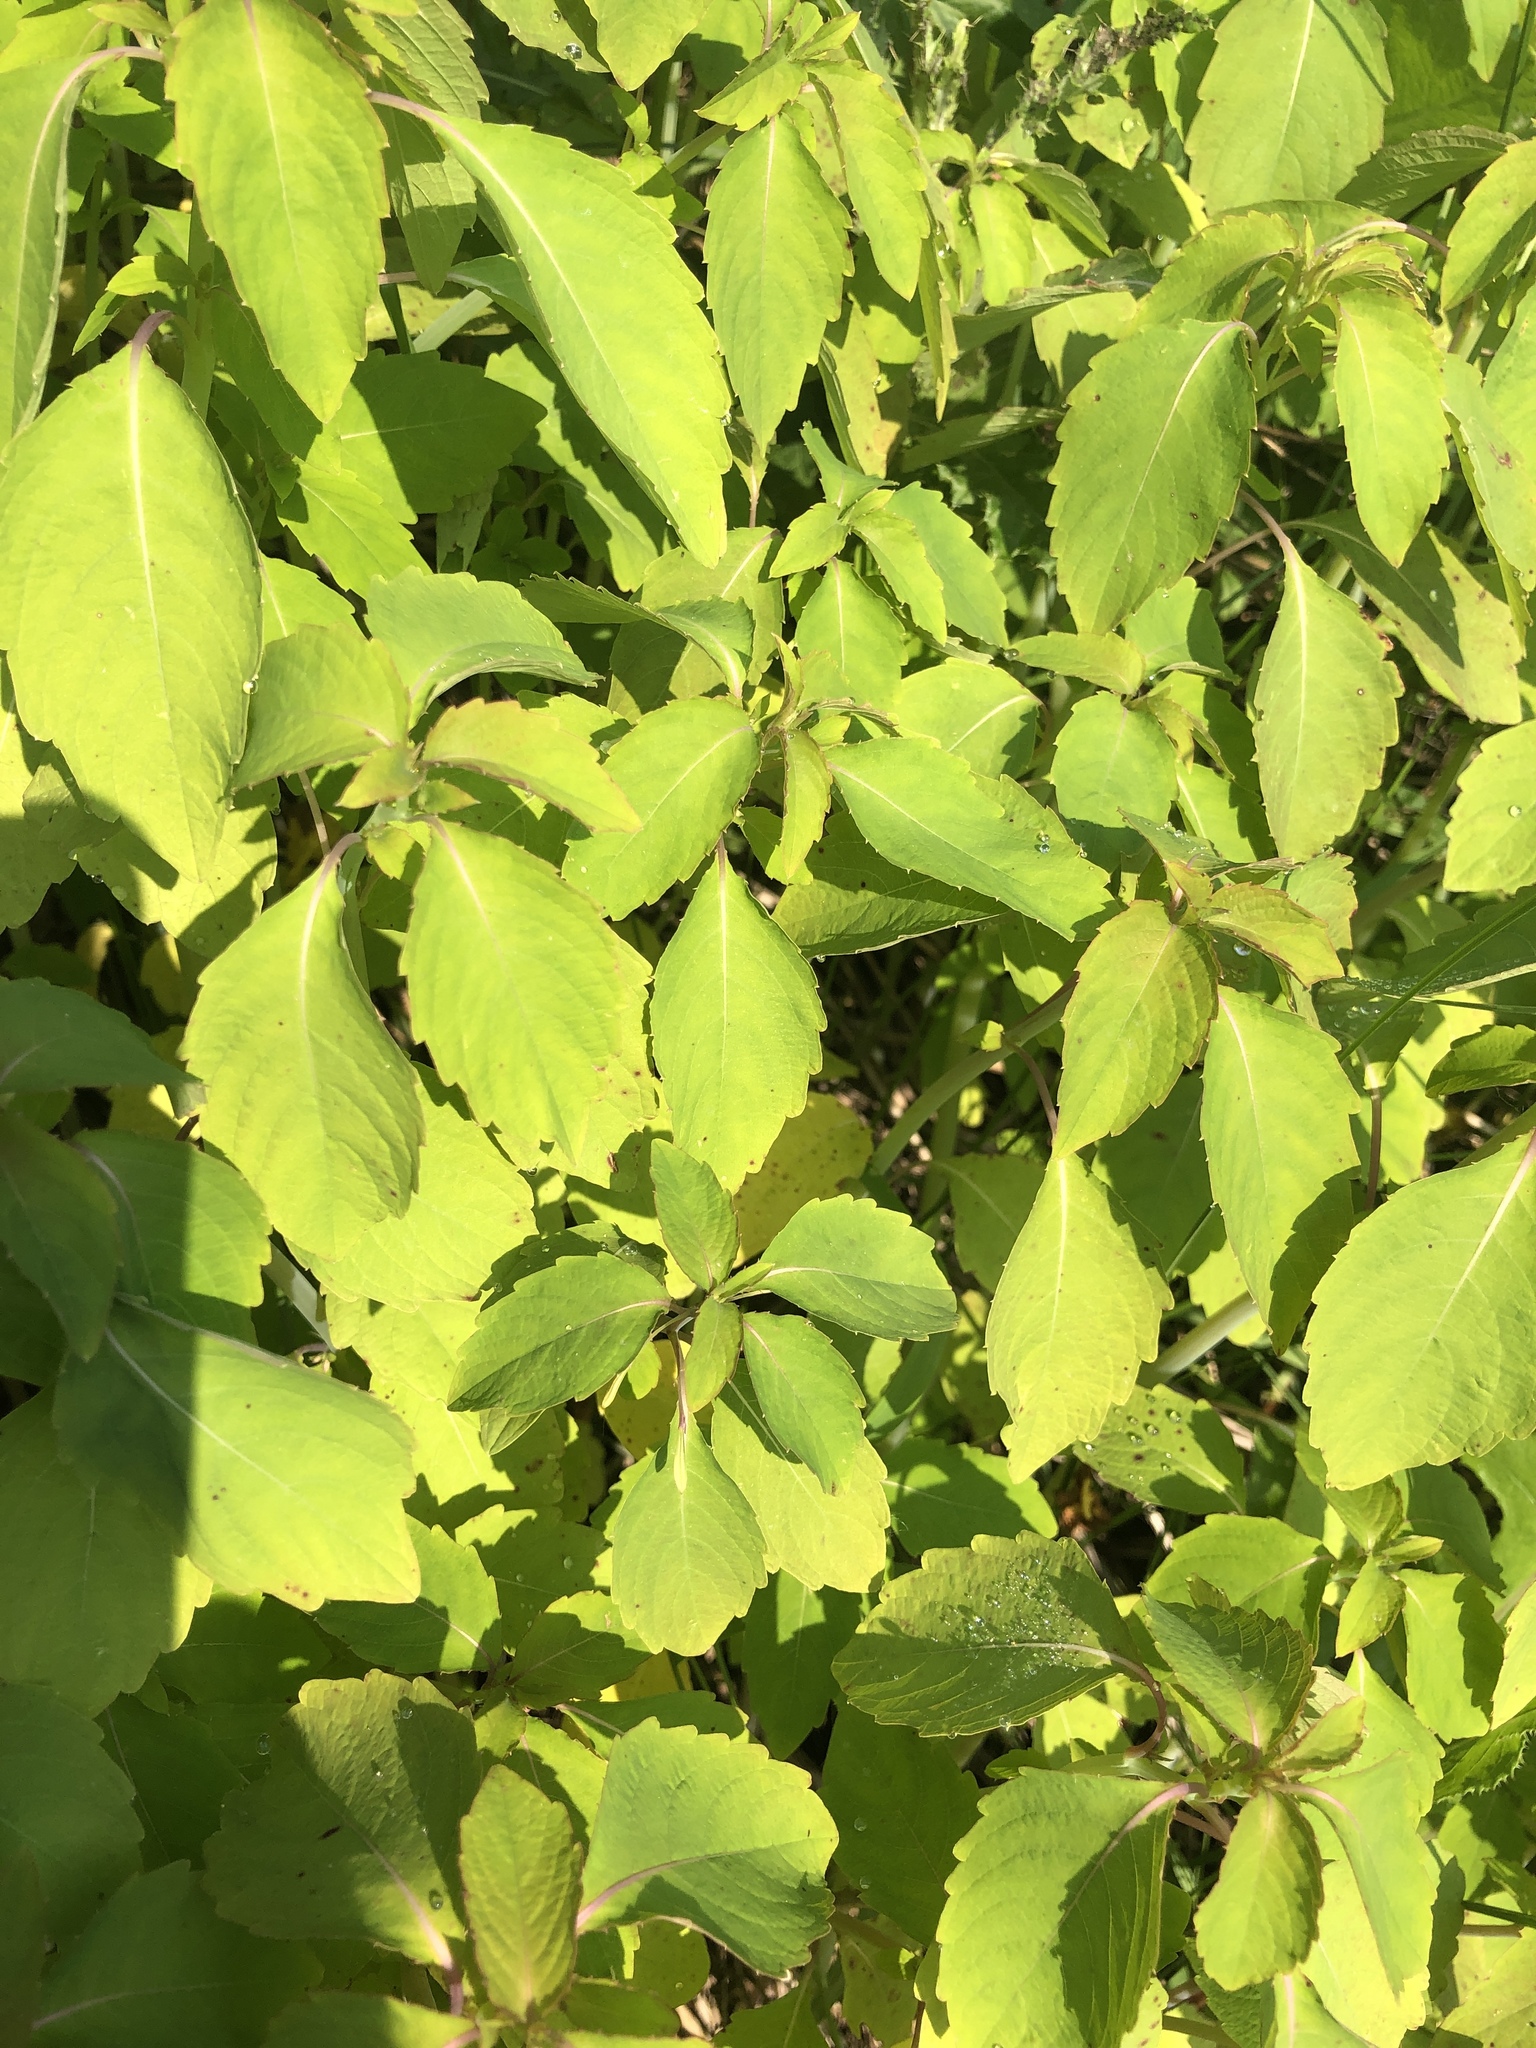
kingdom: Plantae
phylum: Tracheophyta
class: Magnoliopsida
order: Ericales
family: Balsaminaceae
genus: Impatiens
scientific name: Impatiens capensis
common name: Orange balsam
